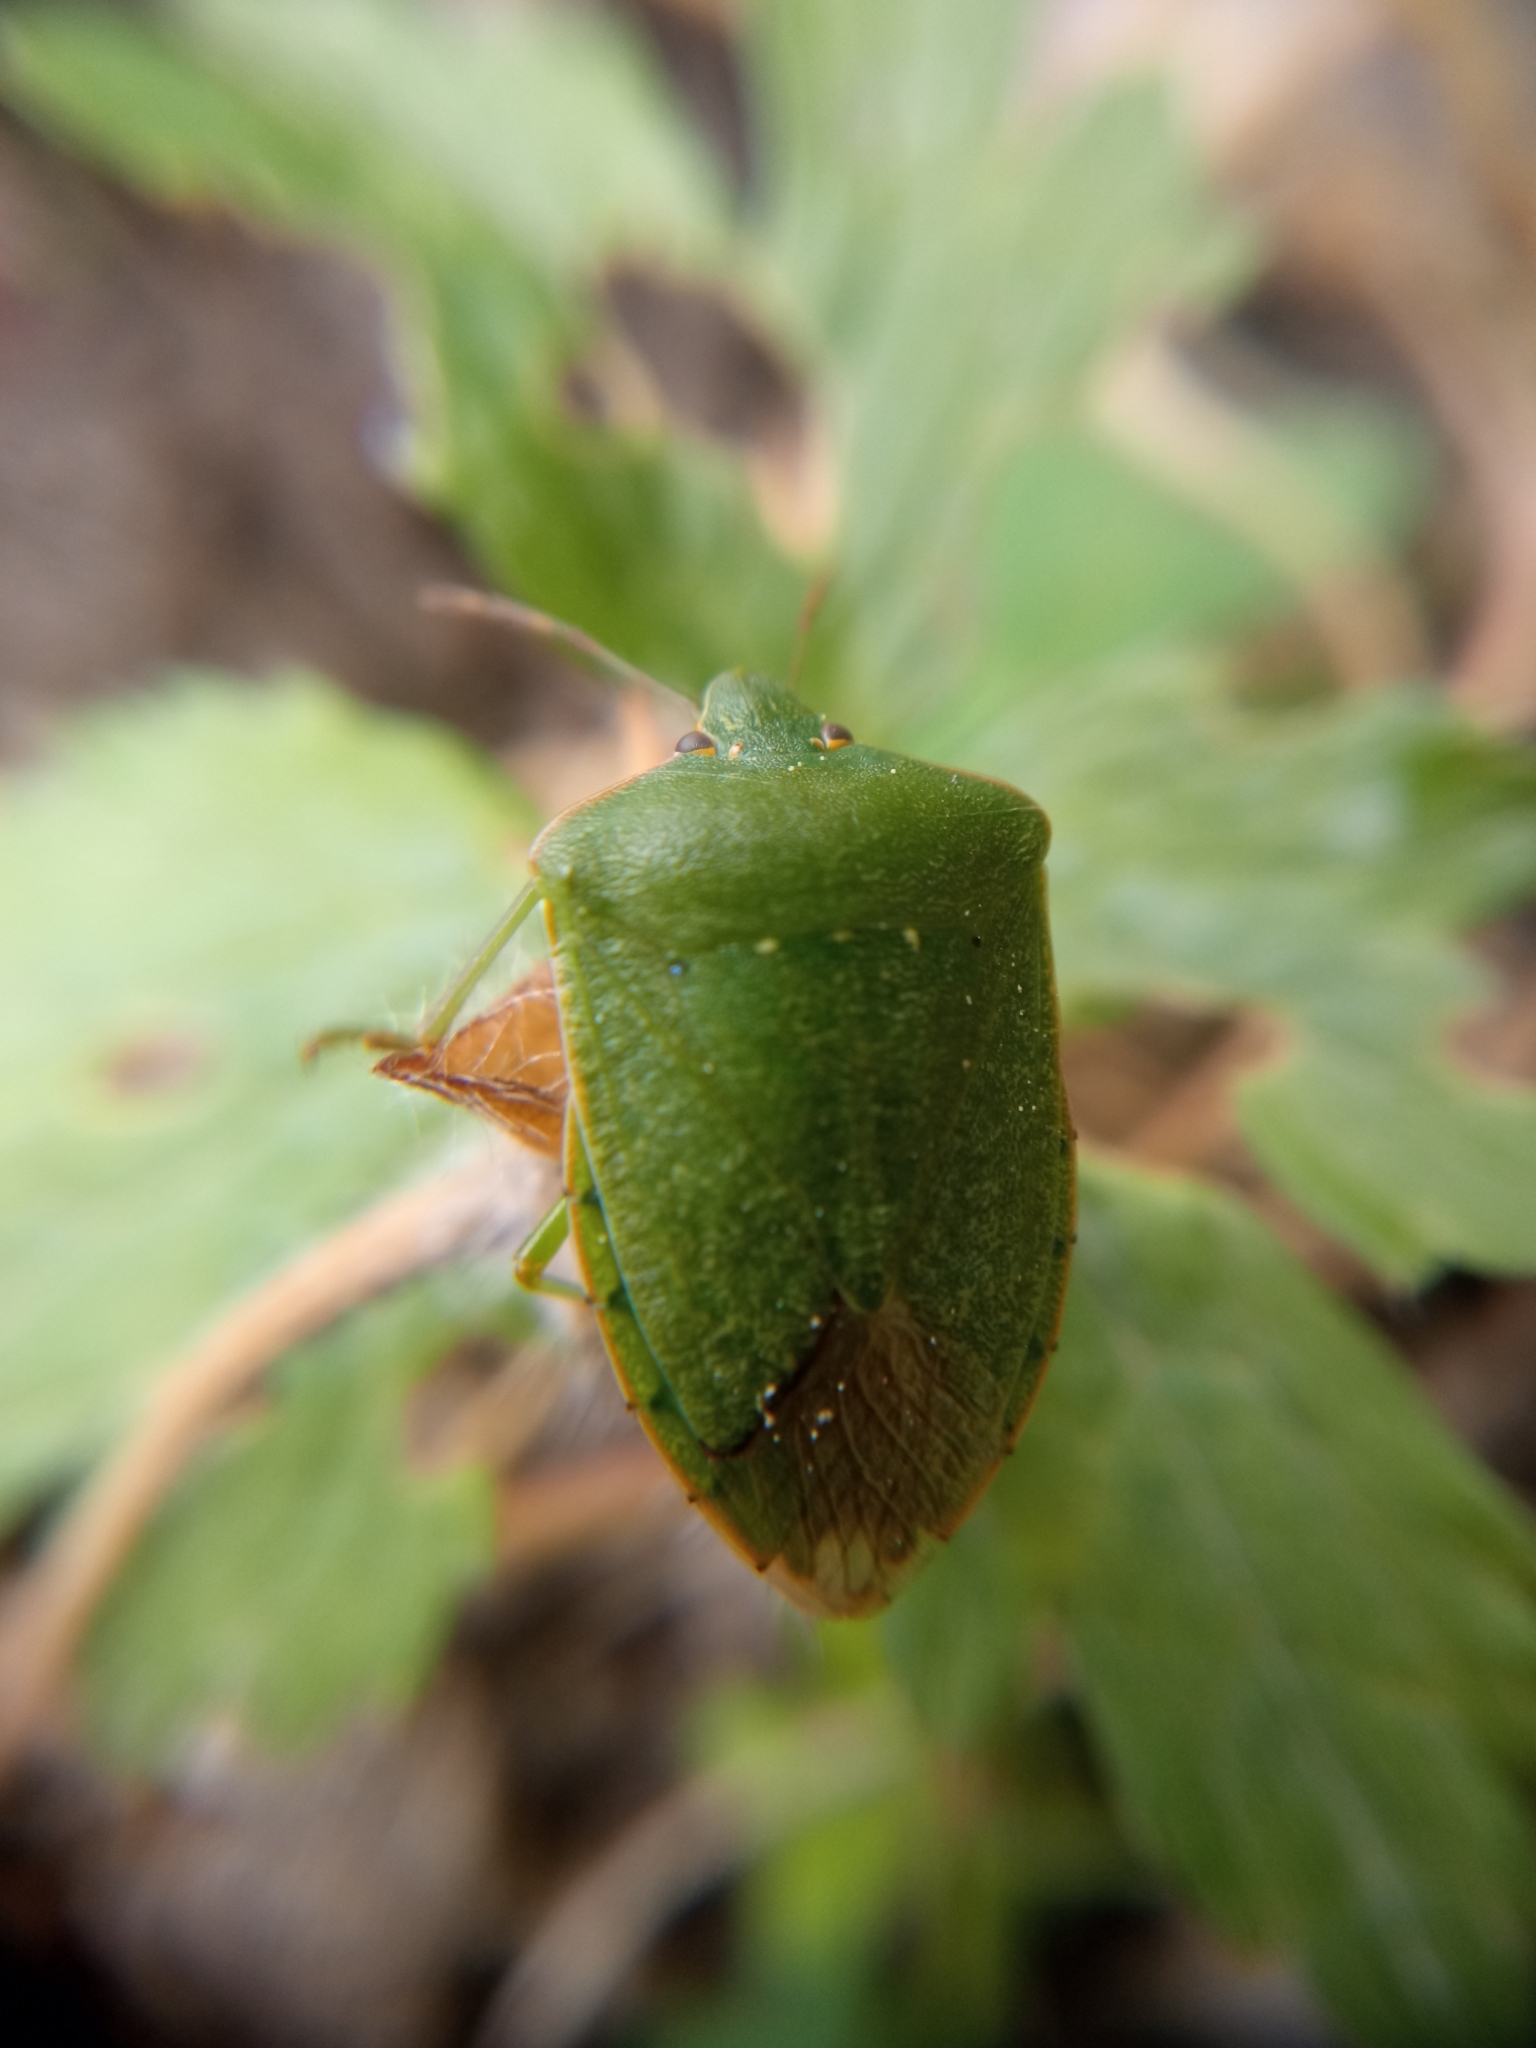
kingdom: Animalia
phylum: Arthropoda
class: Insecta
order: Hemiptera
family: Pentatomidae
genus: Nezara
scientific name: Nezara viridula
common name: Southern green stink bug
